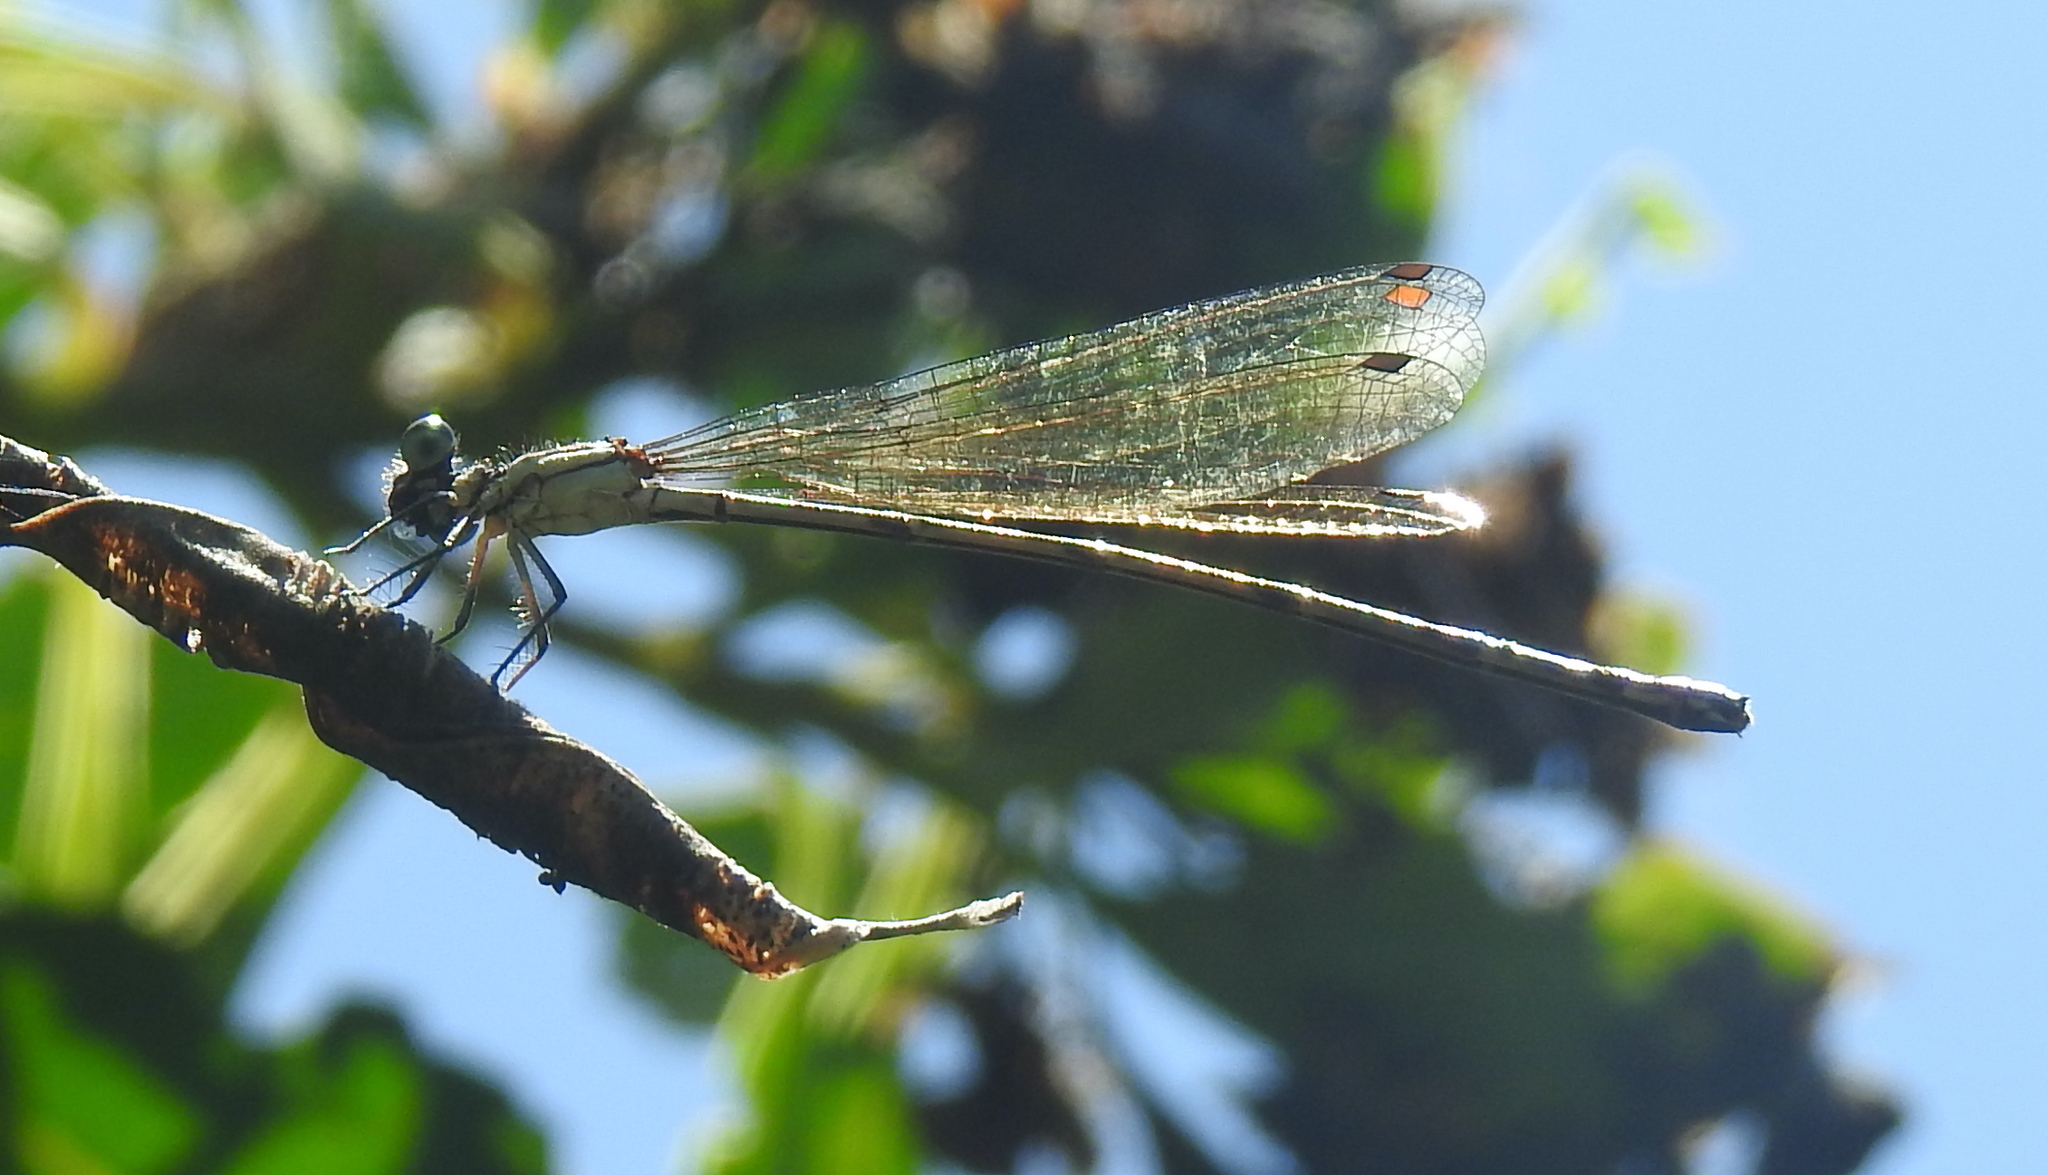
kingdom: Animalia
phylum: Arthropoda
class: Insecta
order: Odonata
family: Platycnemididae
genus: Allocnemis
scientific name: Allocnemis leucosticta
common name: Goldtail
